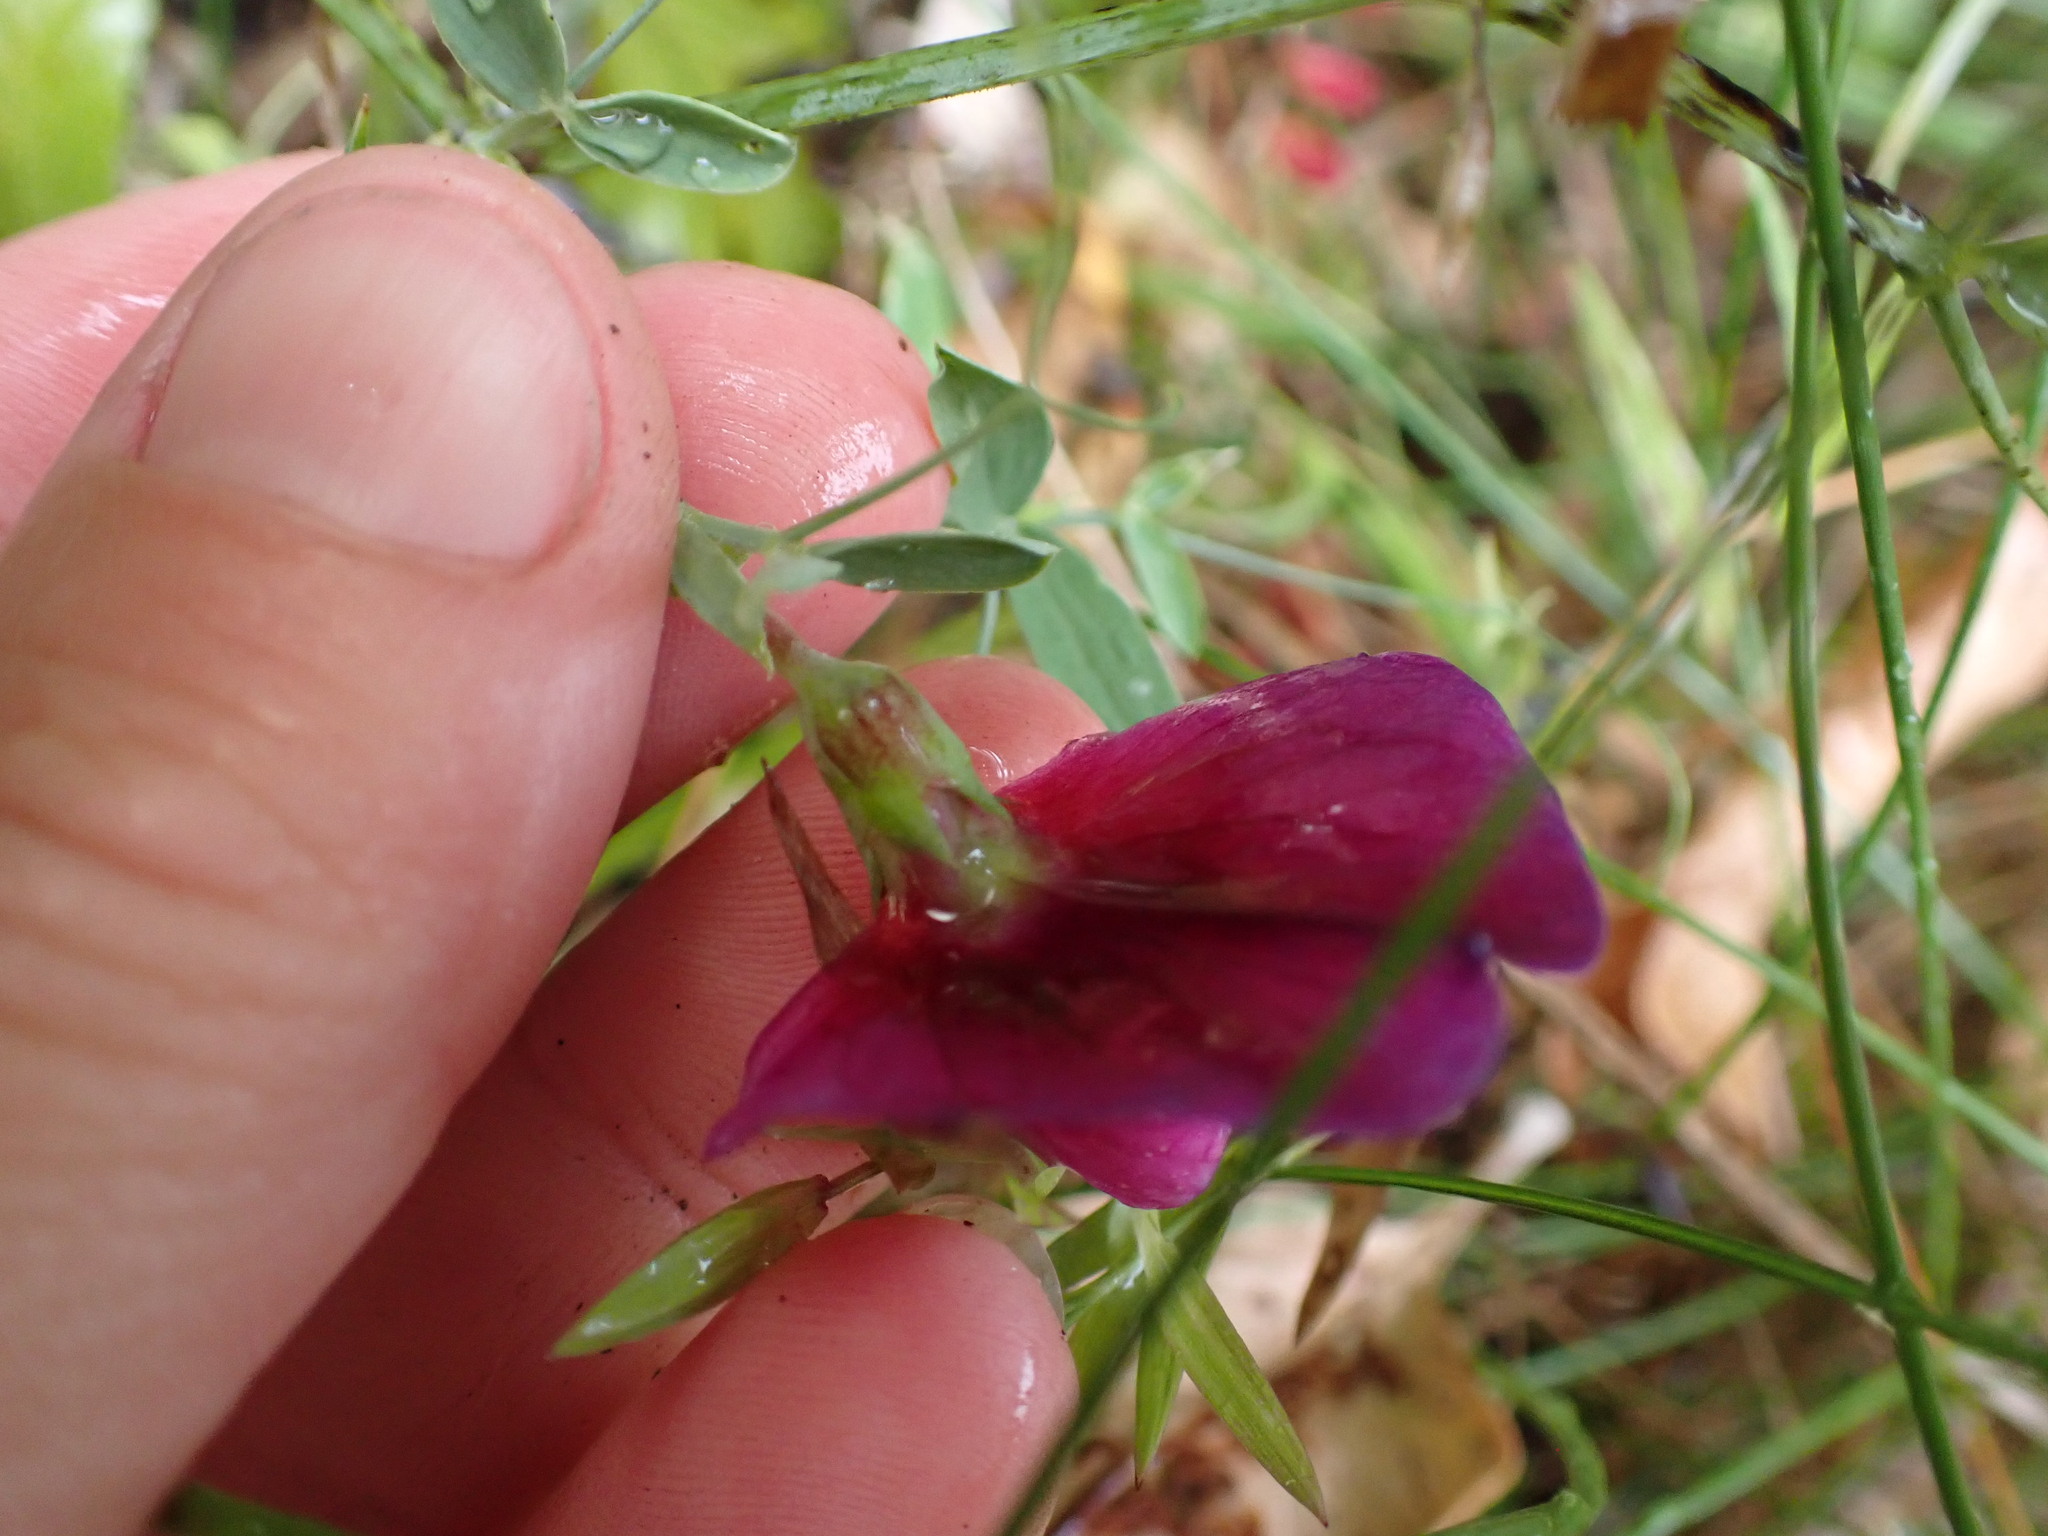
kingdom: Plantae
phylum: Tracheophyta
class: Magnoliopsida
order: Fabales
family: Fabaceae
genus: Lathyrus
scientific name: Lathyrus tingitanus
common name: Tangier pea
